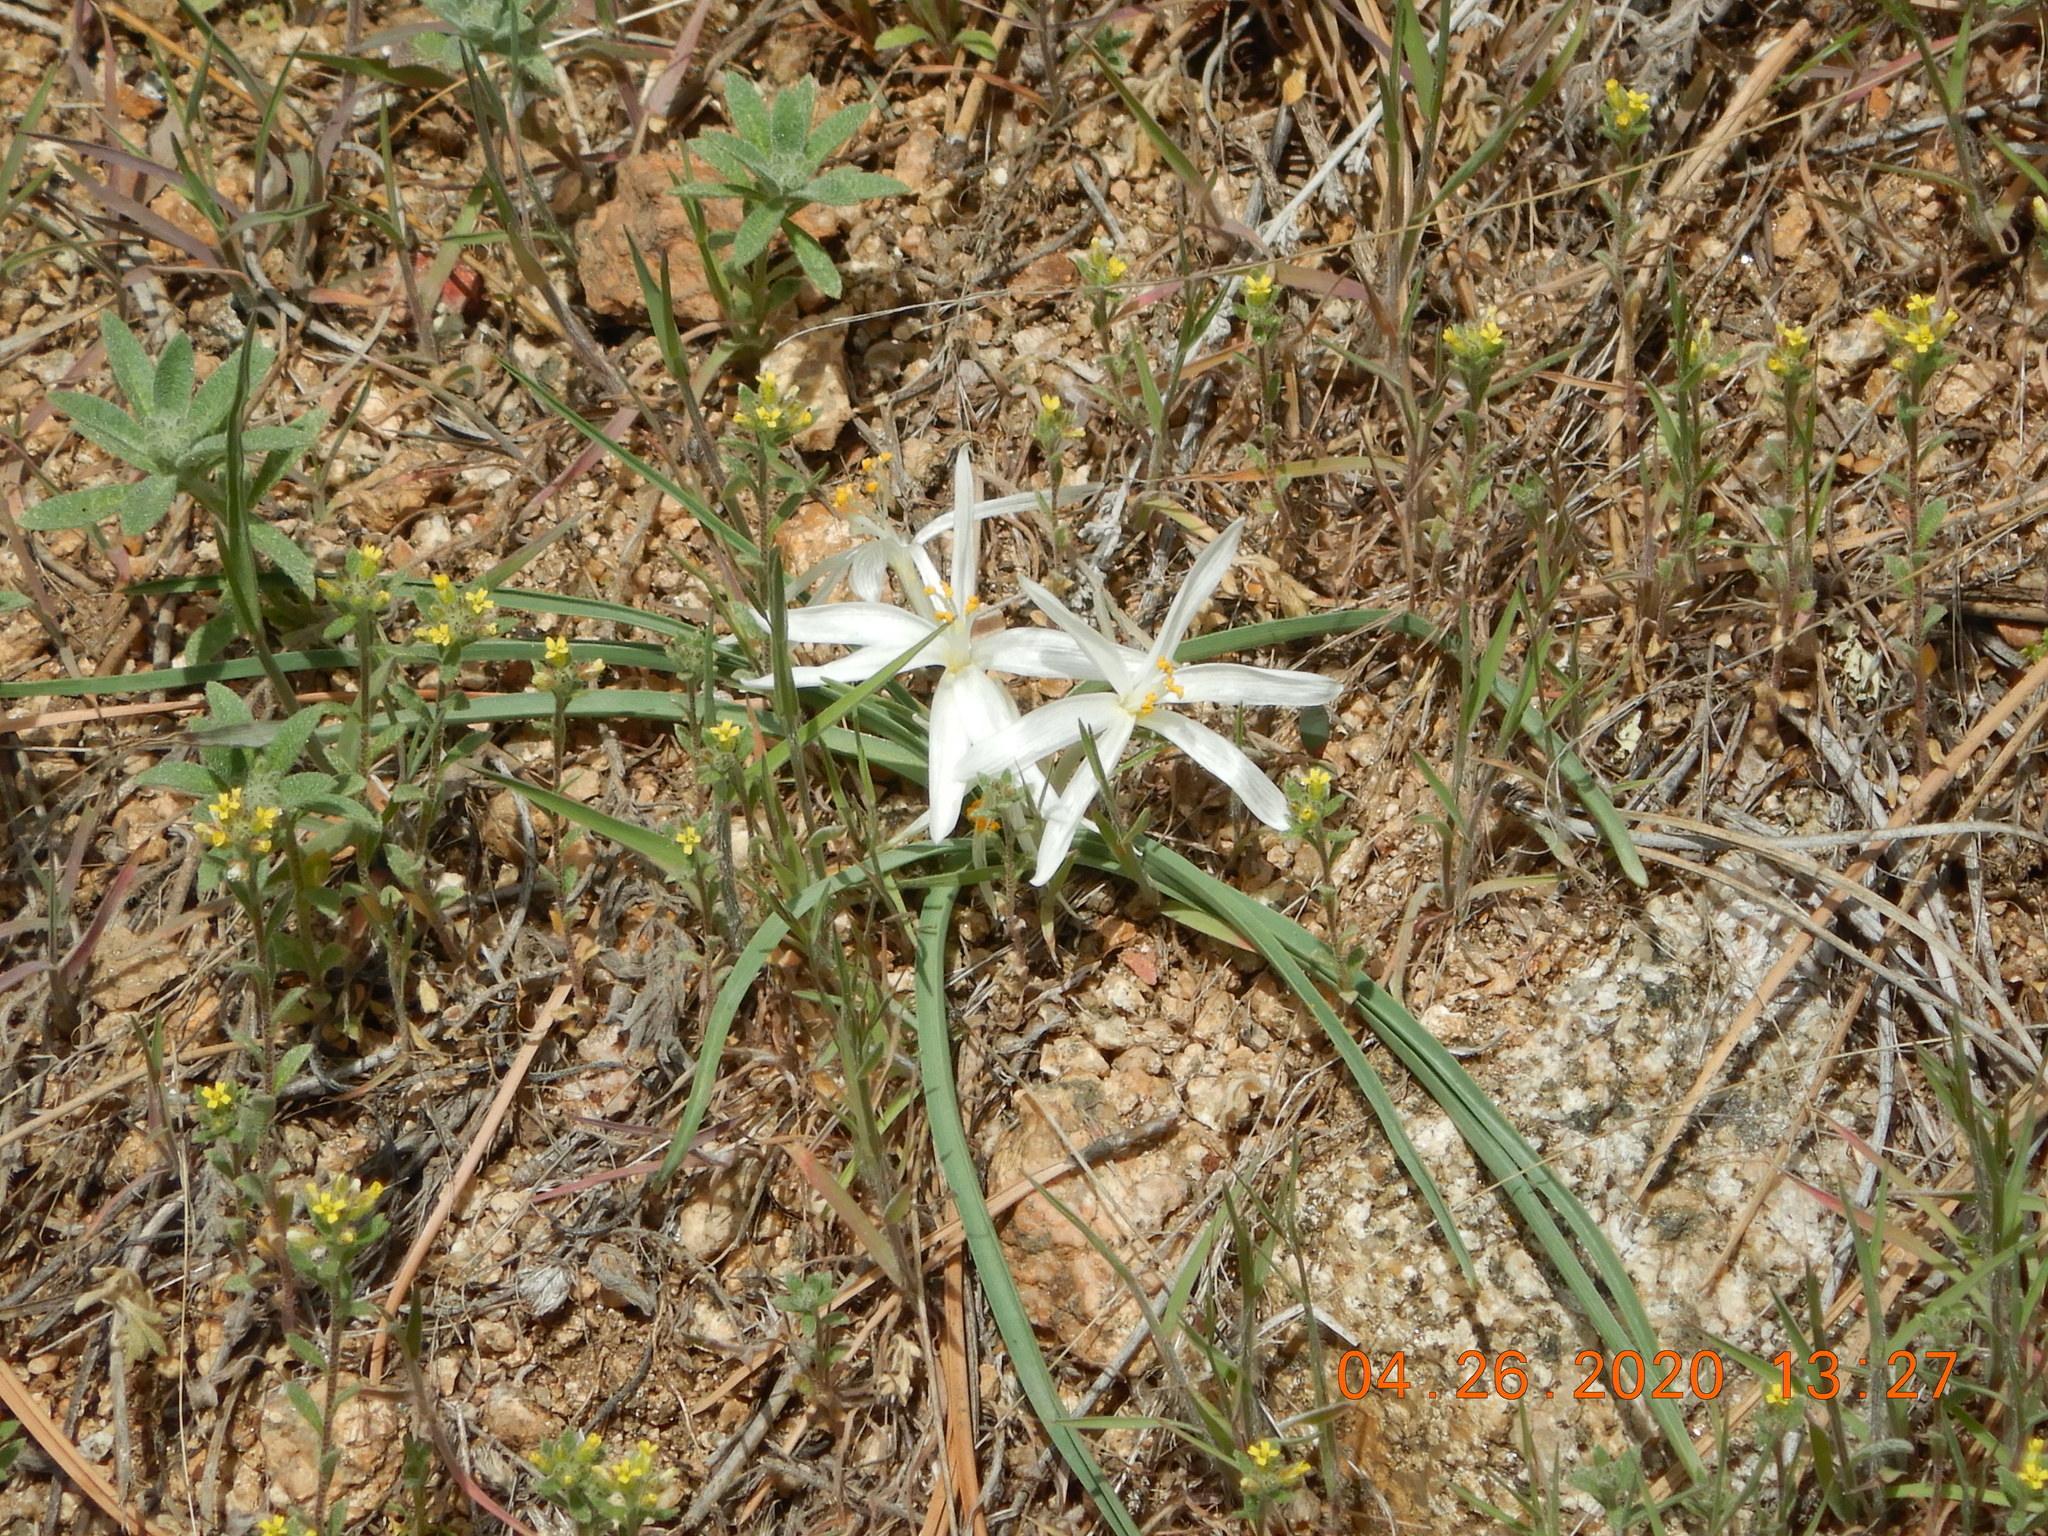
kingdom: Plantae
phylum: Tracheophyta
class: Liliopsida
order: Asparagales
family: Asparagaceae
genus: Leucocrinum
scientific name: Leucocrinum montanum
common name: Mountain-lily
